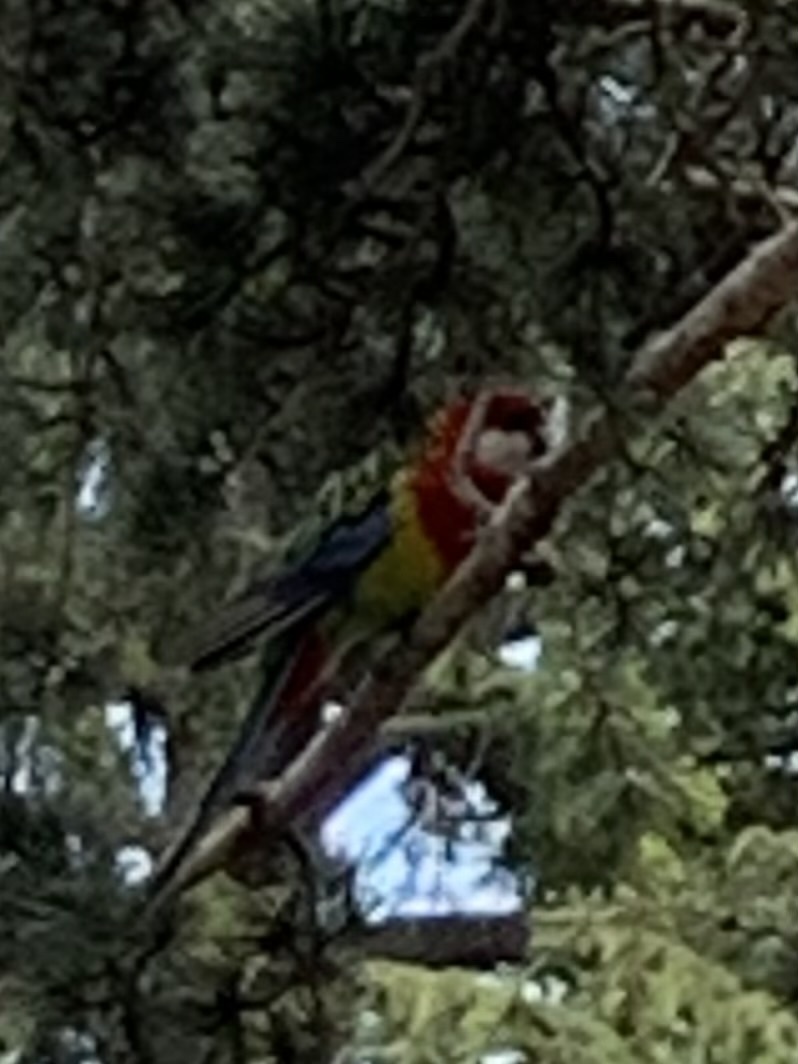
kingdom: Animalia
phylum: Chordata
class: Aves
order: Psittaciformes
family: Psittacidae
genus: Platycercus
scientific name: Platycercus eximius
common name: Eastern rosella
